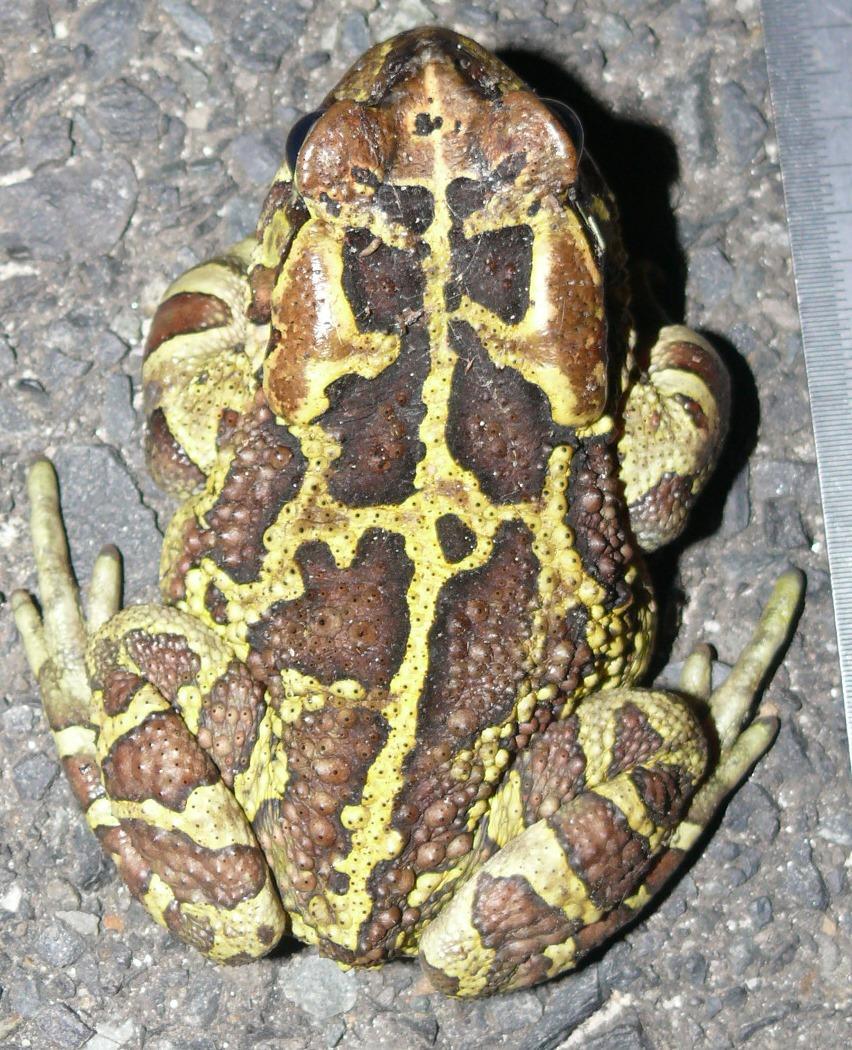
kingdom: Animalia
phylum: Chordata
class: Amphibia
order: Anura
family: Bufonidae
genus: Sclerophrys
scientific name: Sclerophrys pantherina
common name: Panther toad
